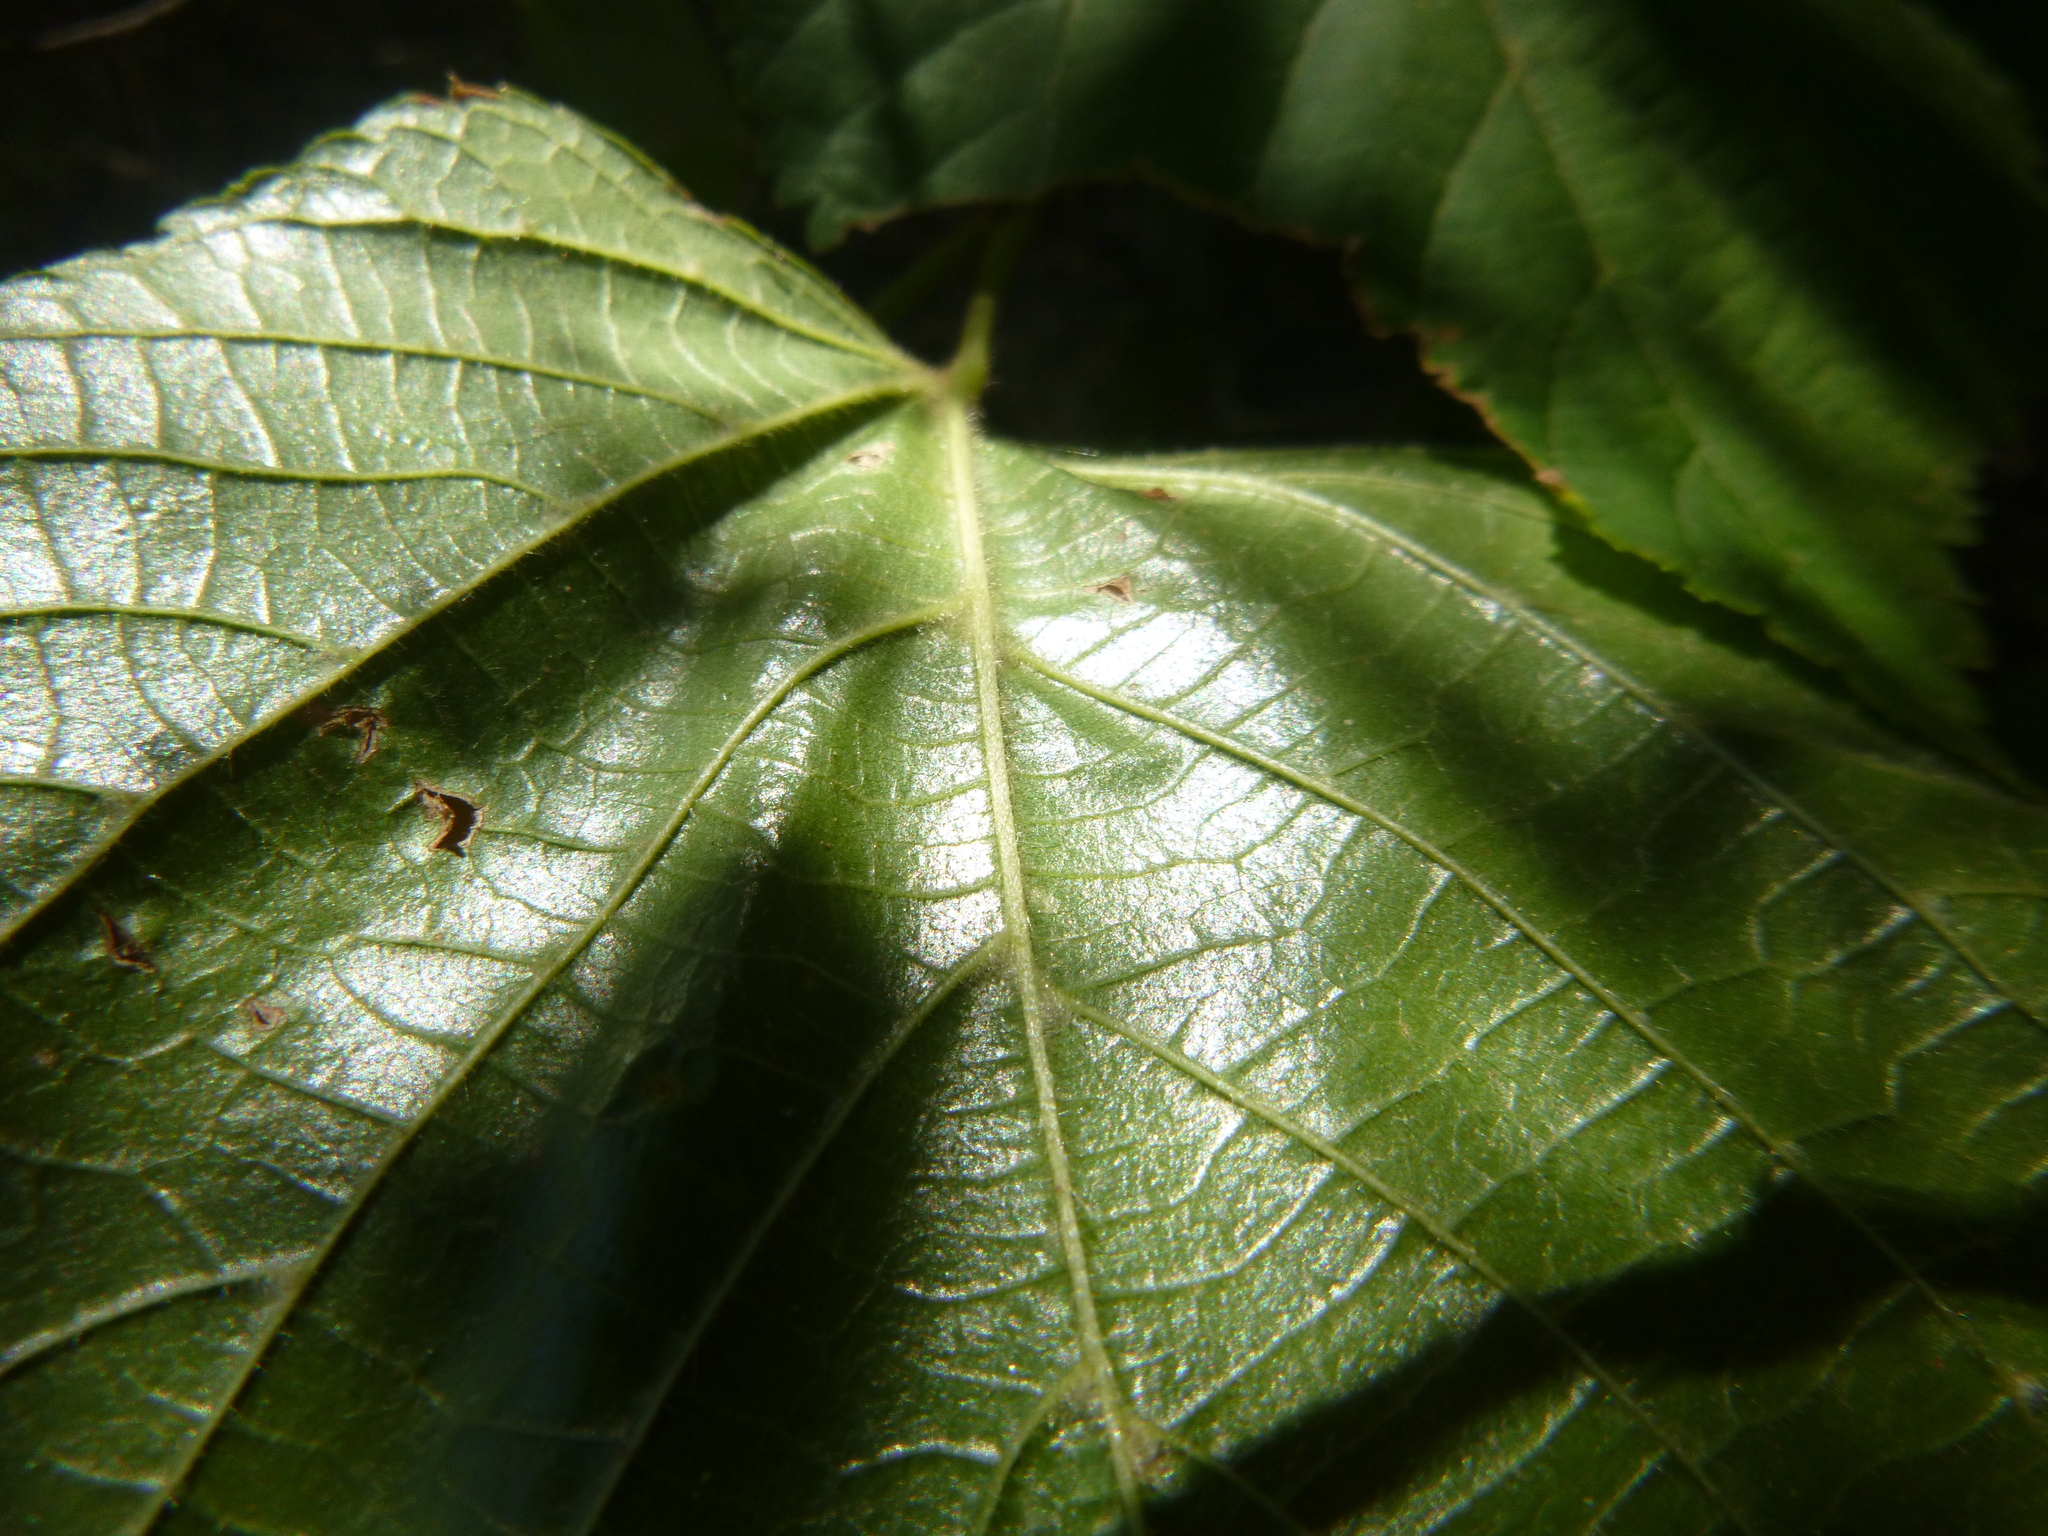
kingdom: Plantae
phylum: Tracheophyta
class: Magnoliopsida
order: Malvales
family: Malvaceae
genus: Tilia
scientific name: Tilia platyphyllos
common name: Large-leaved lime
